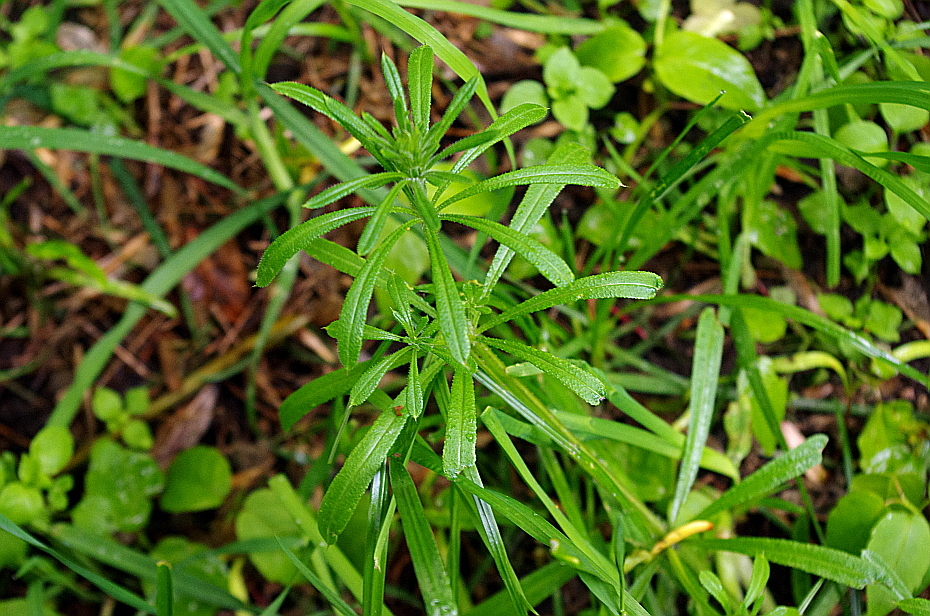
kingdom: Plantae
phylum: Tracheophyta
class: Magnoliopsida
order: Gentianales
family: Rubiaceae
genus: Galium
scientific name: Galium aparine
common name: Cleavers
